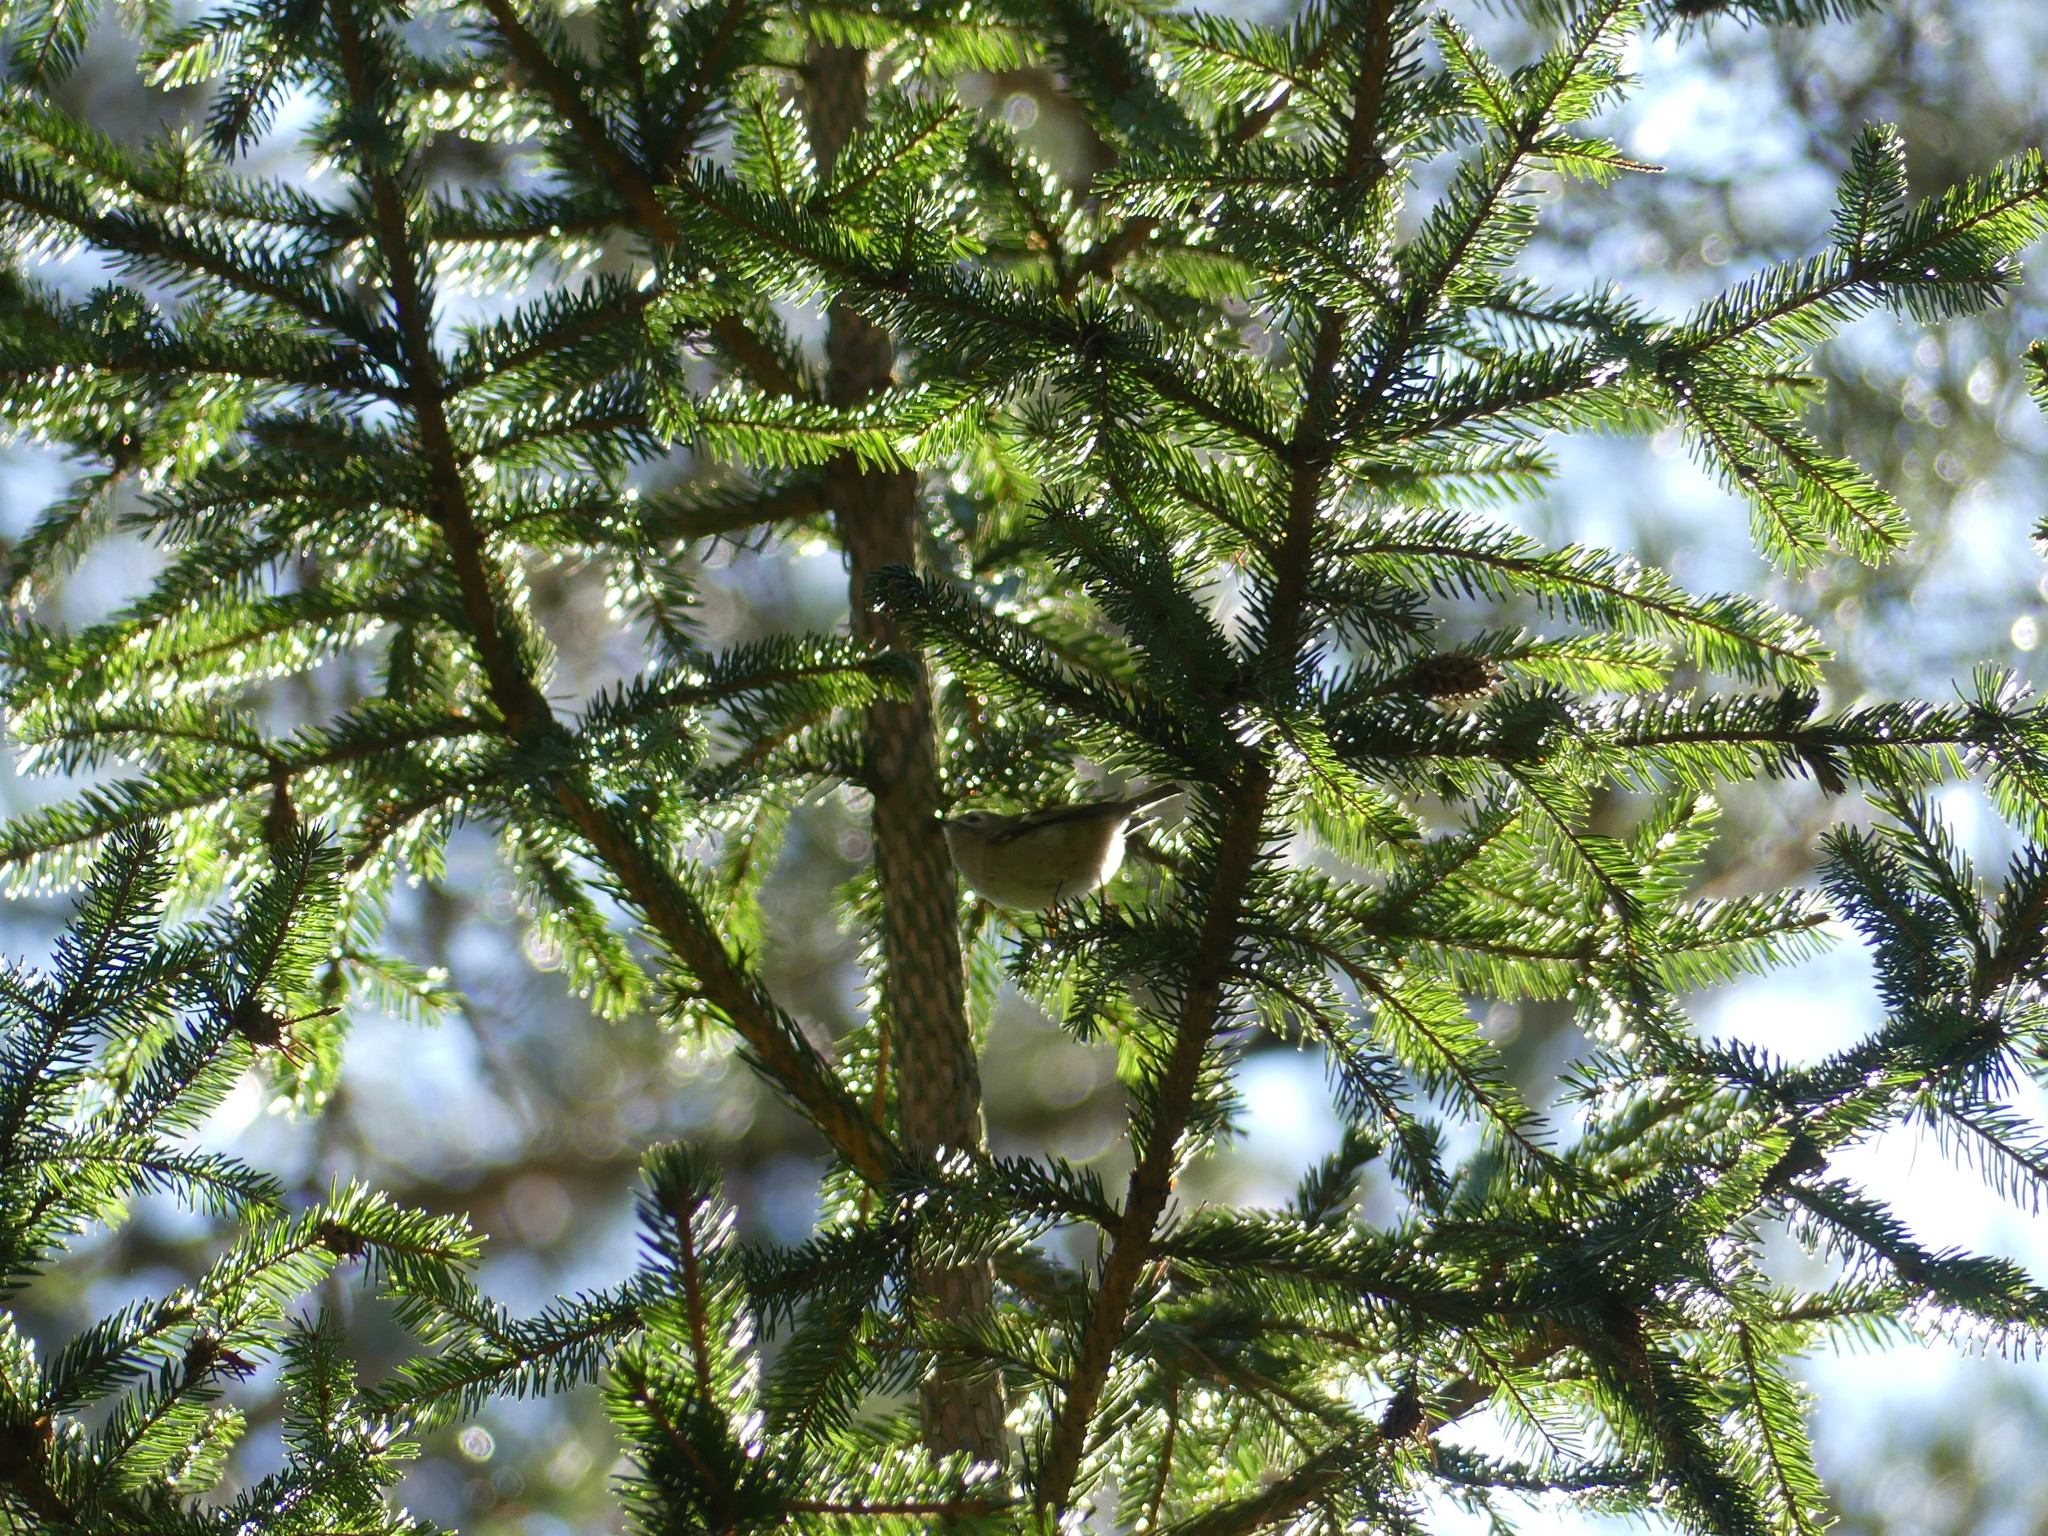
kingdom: Animalia
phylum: Chordata
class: Aves
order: Passeriformes
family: Regulidae
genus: Regulus
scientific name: Regulus regulus
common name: Goldcrest
